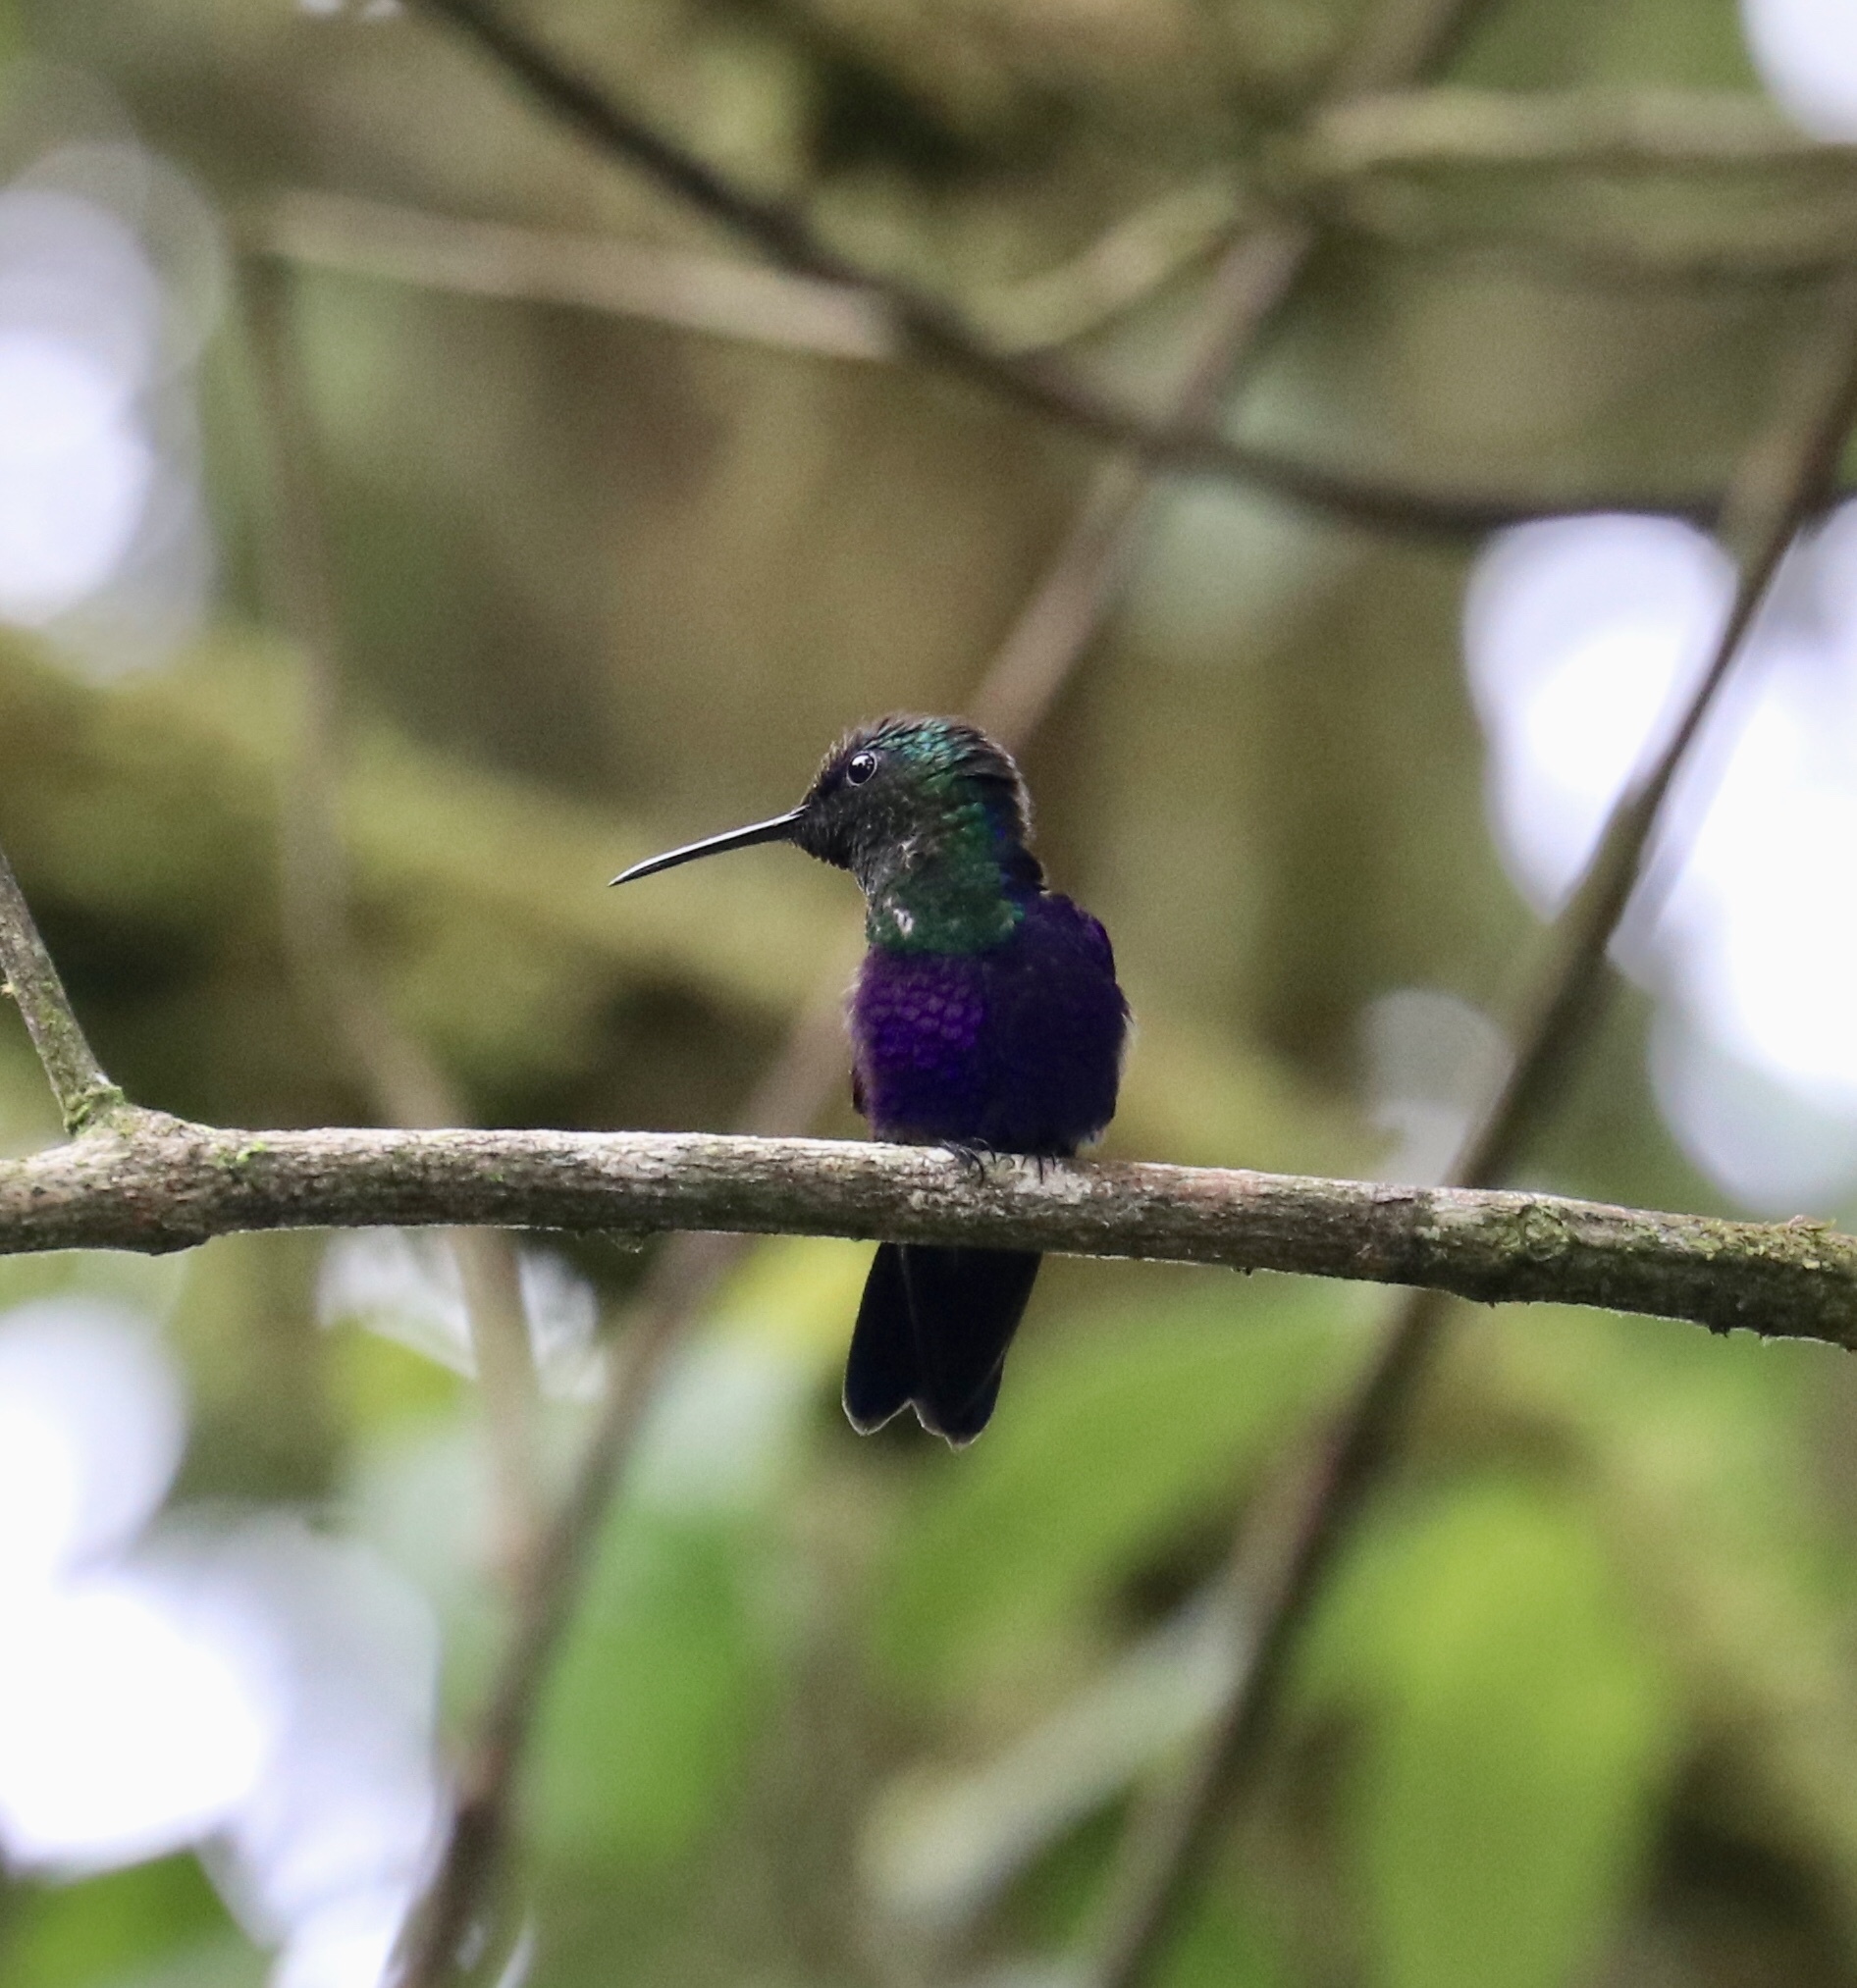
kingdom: Animalia
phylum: Chordata
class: Aves
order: Apodiformes
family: Trochilidae
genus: Thalurania
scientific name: Thalurania colombica
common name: Crowned woodnymph
